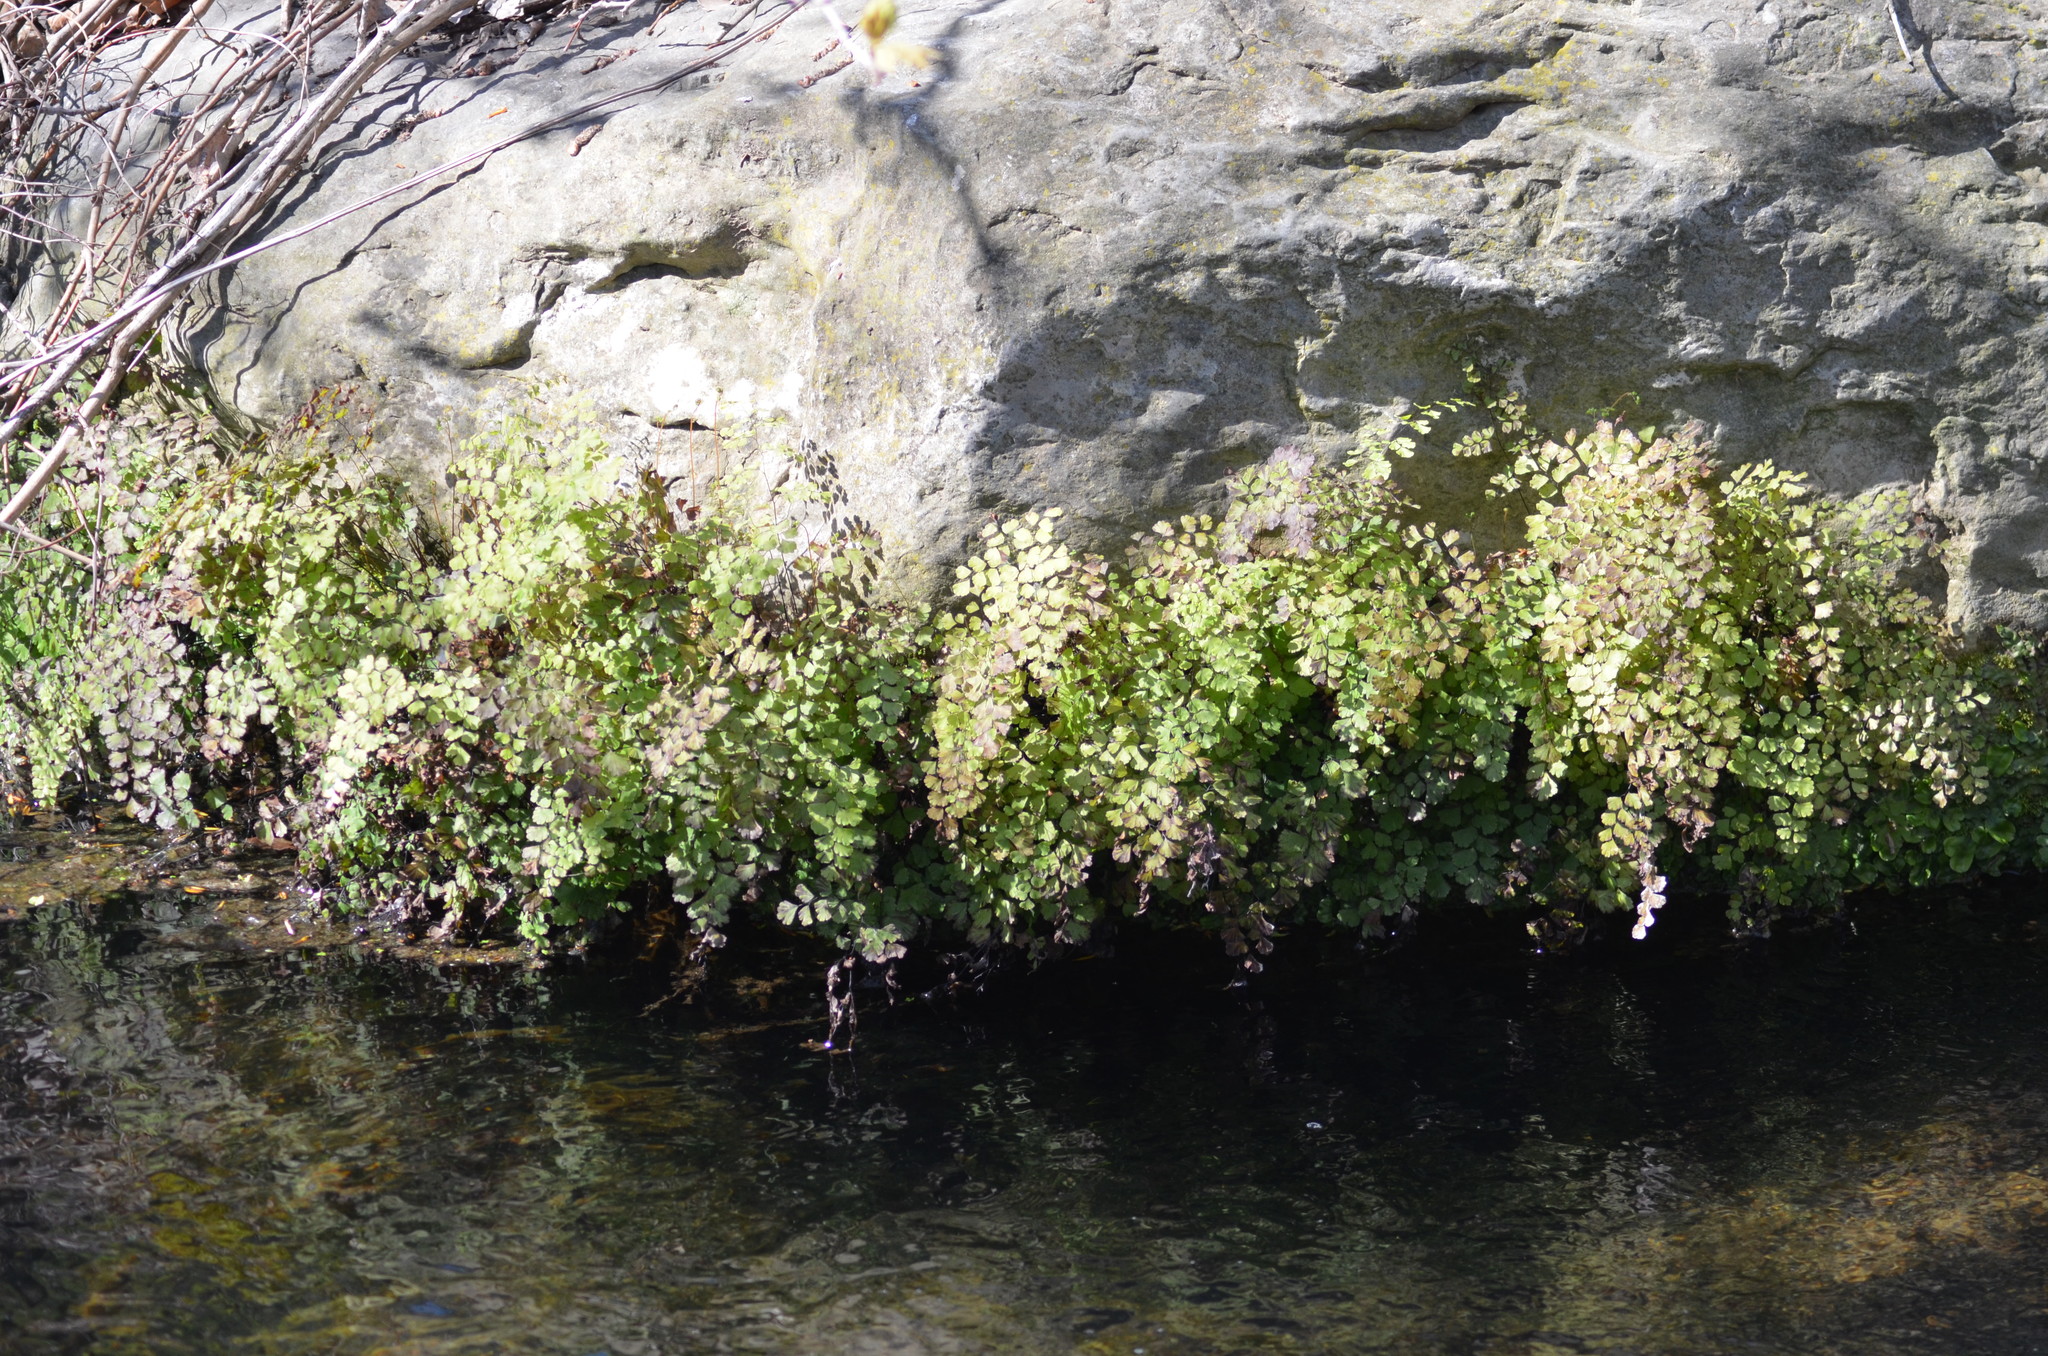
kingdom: Plantae
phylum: Tracheophyta
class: Polypodiopsida
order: Polypodiales
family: Pteridaceae
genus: Adiantum
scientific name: Adiantum capillus-veneris
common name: Maidenhair fern
